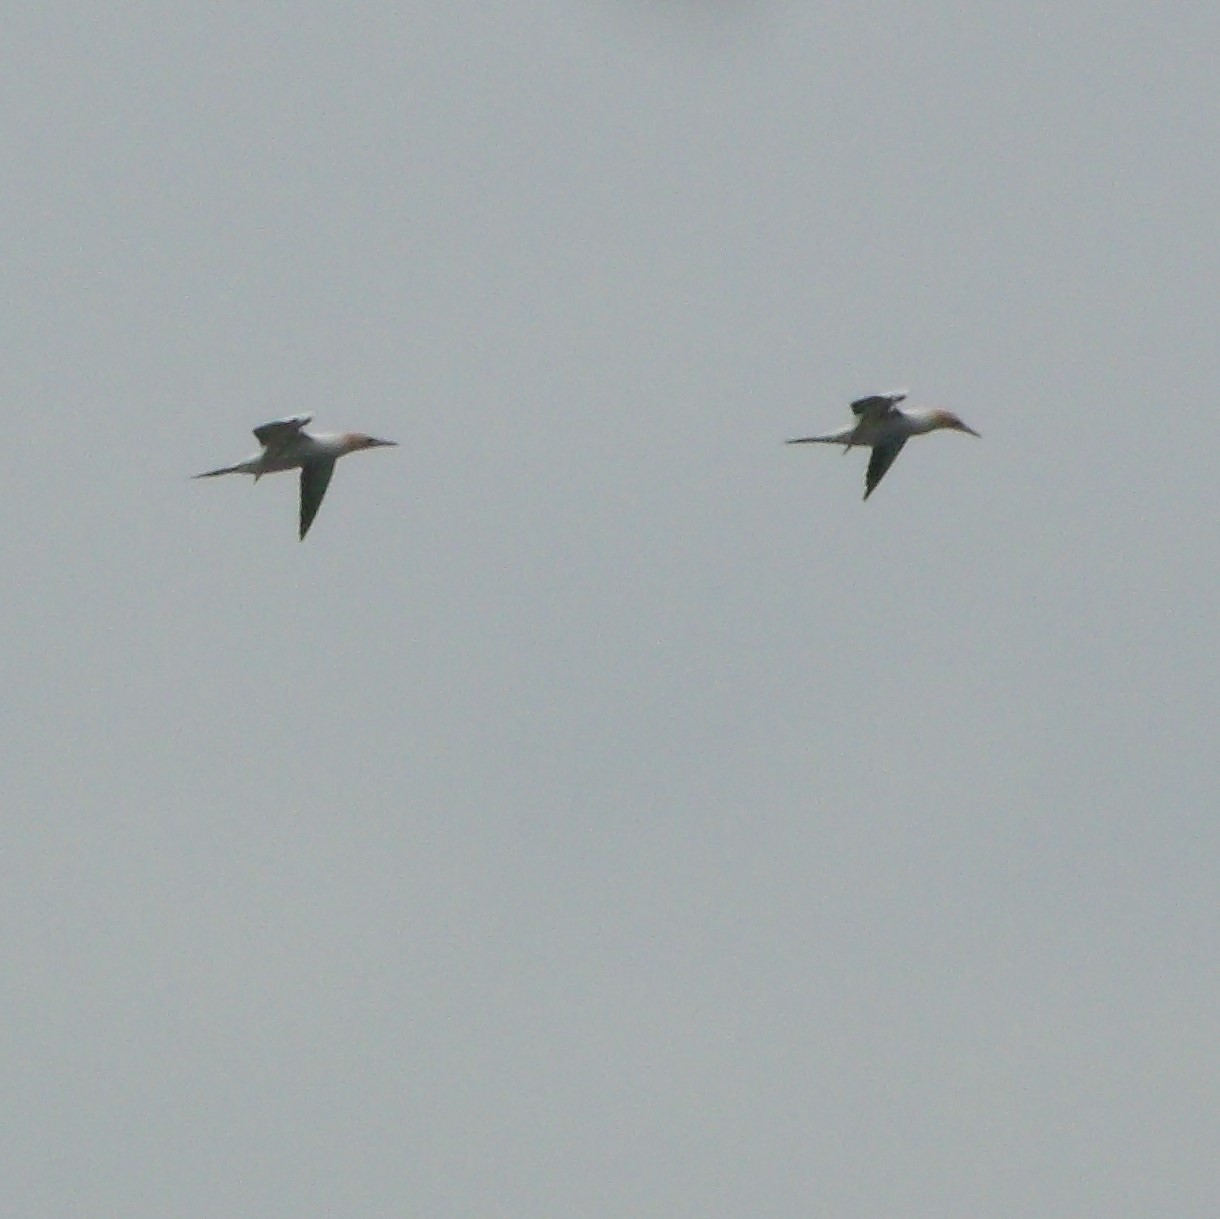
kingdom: Animalia
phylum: Chordata
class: Aves
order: Suliformes
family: Sulidae
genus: Morus
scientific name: Morus serrator
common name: Australasian gannet
